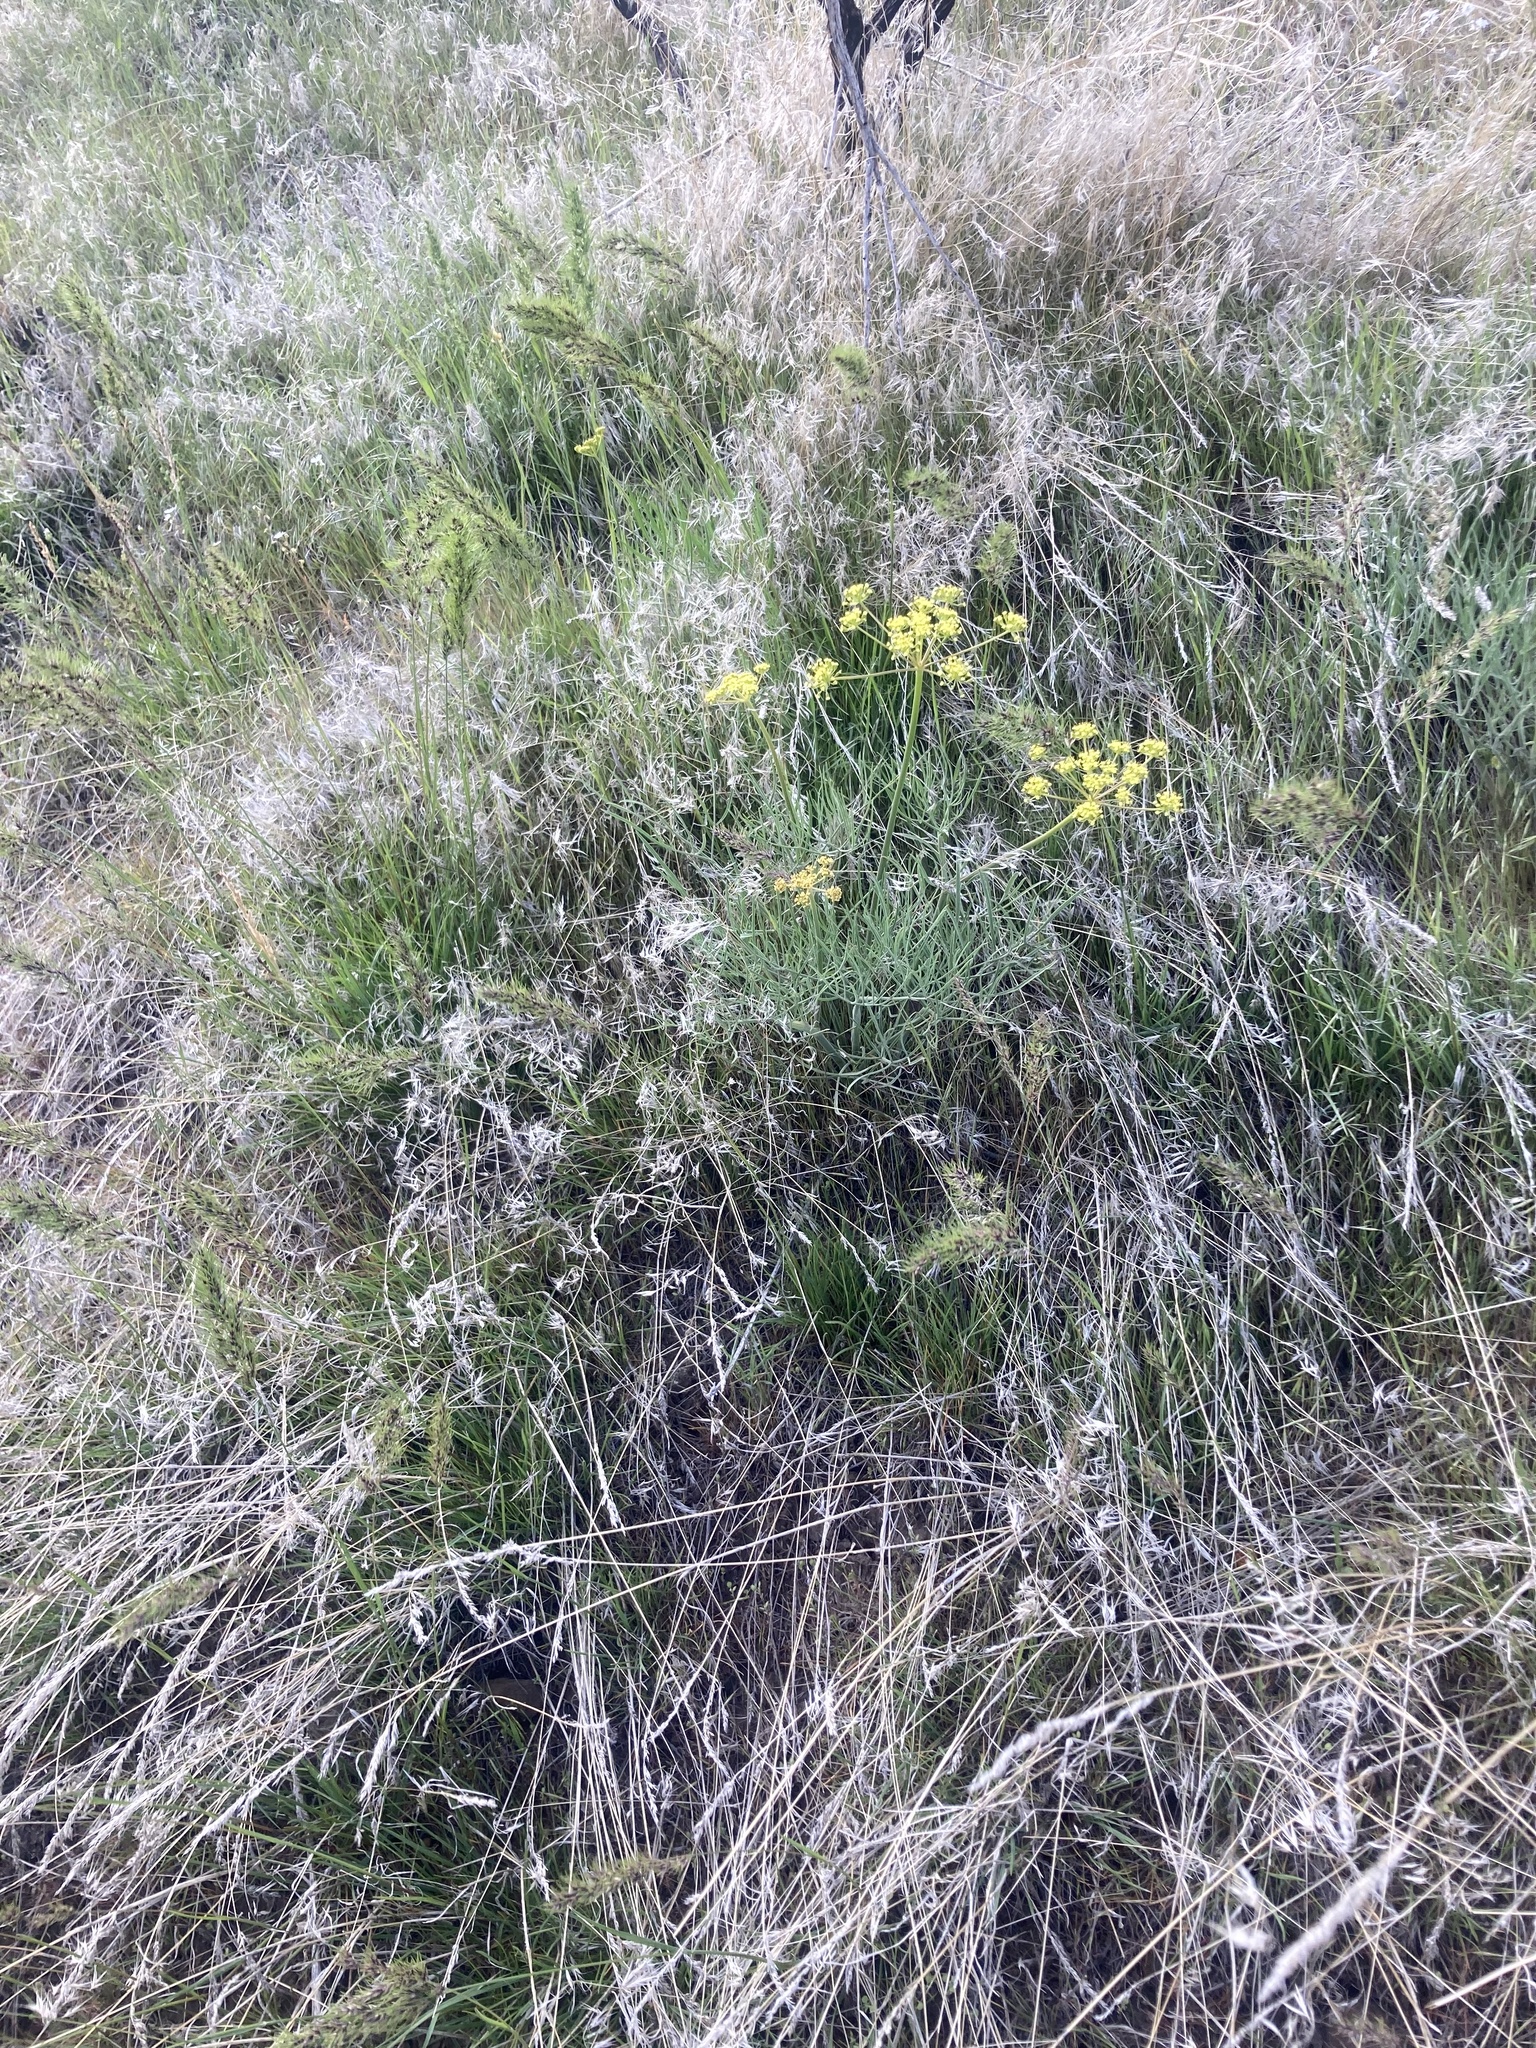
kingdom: Plantae
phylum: Tracheophyta
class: Liliopsida
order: Poales
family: Poaceae
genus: Poa
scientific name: Poa bulbosa
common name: Bulbous bluegrass
